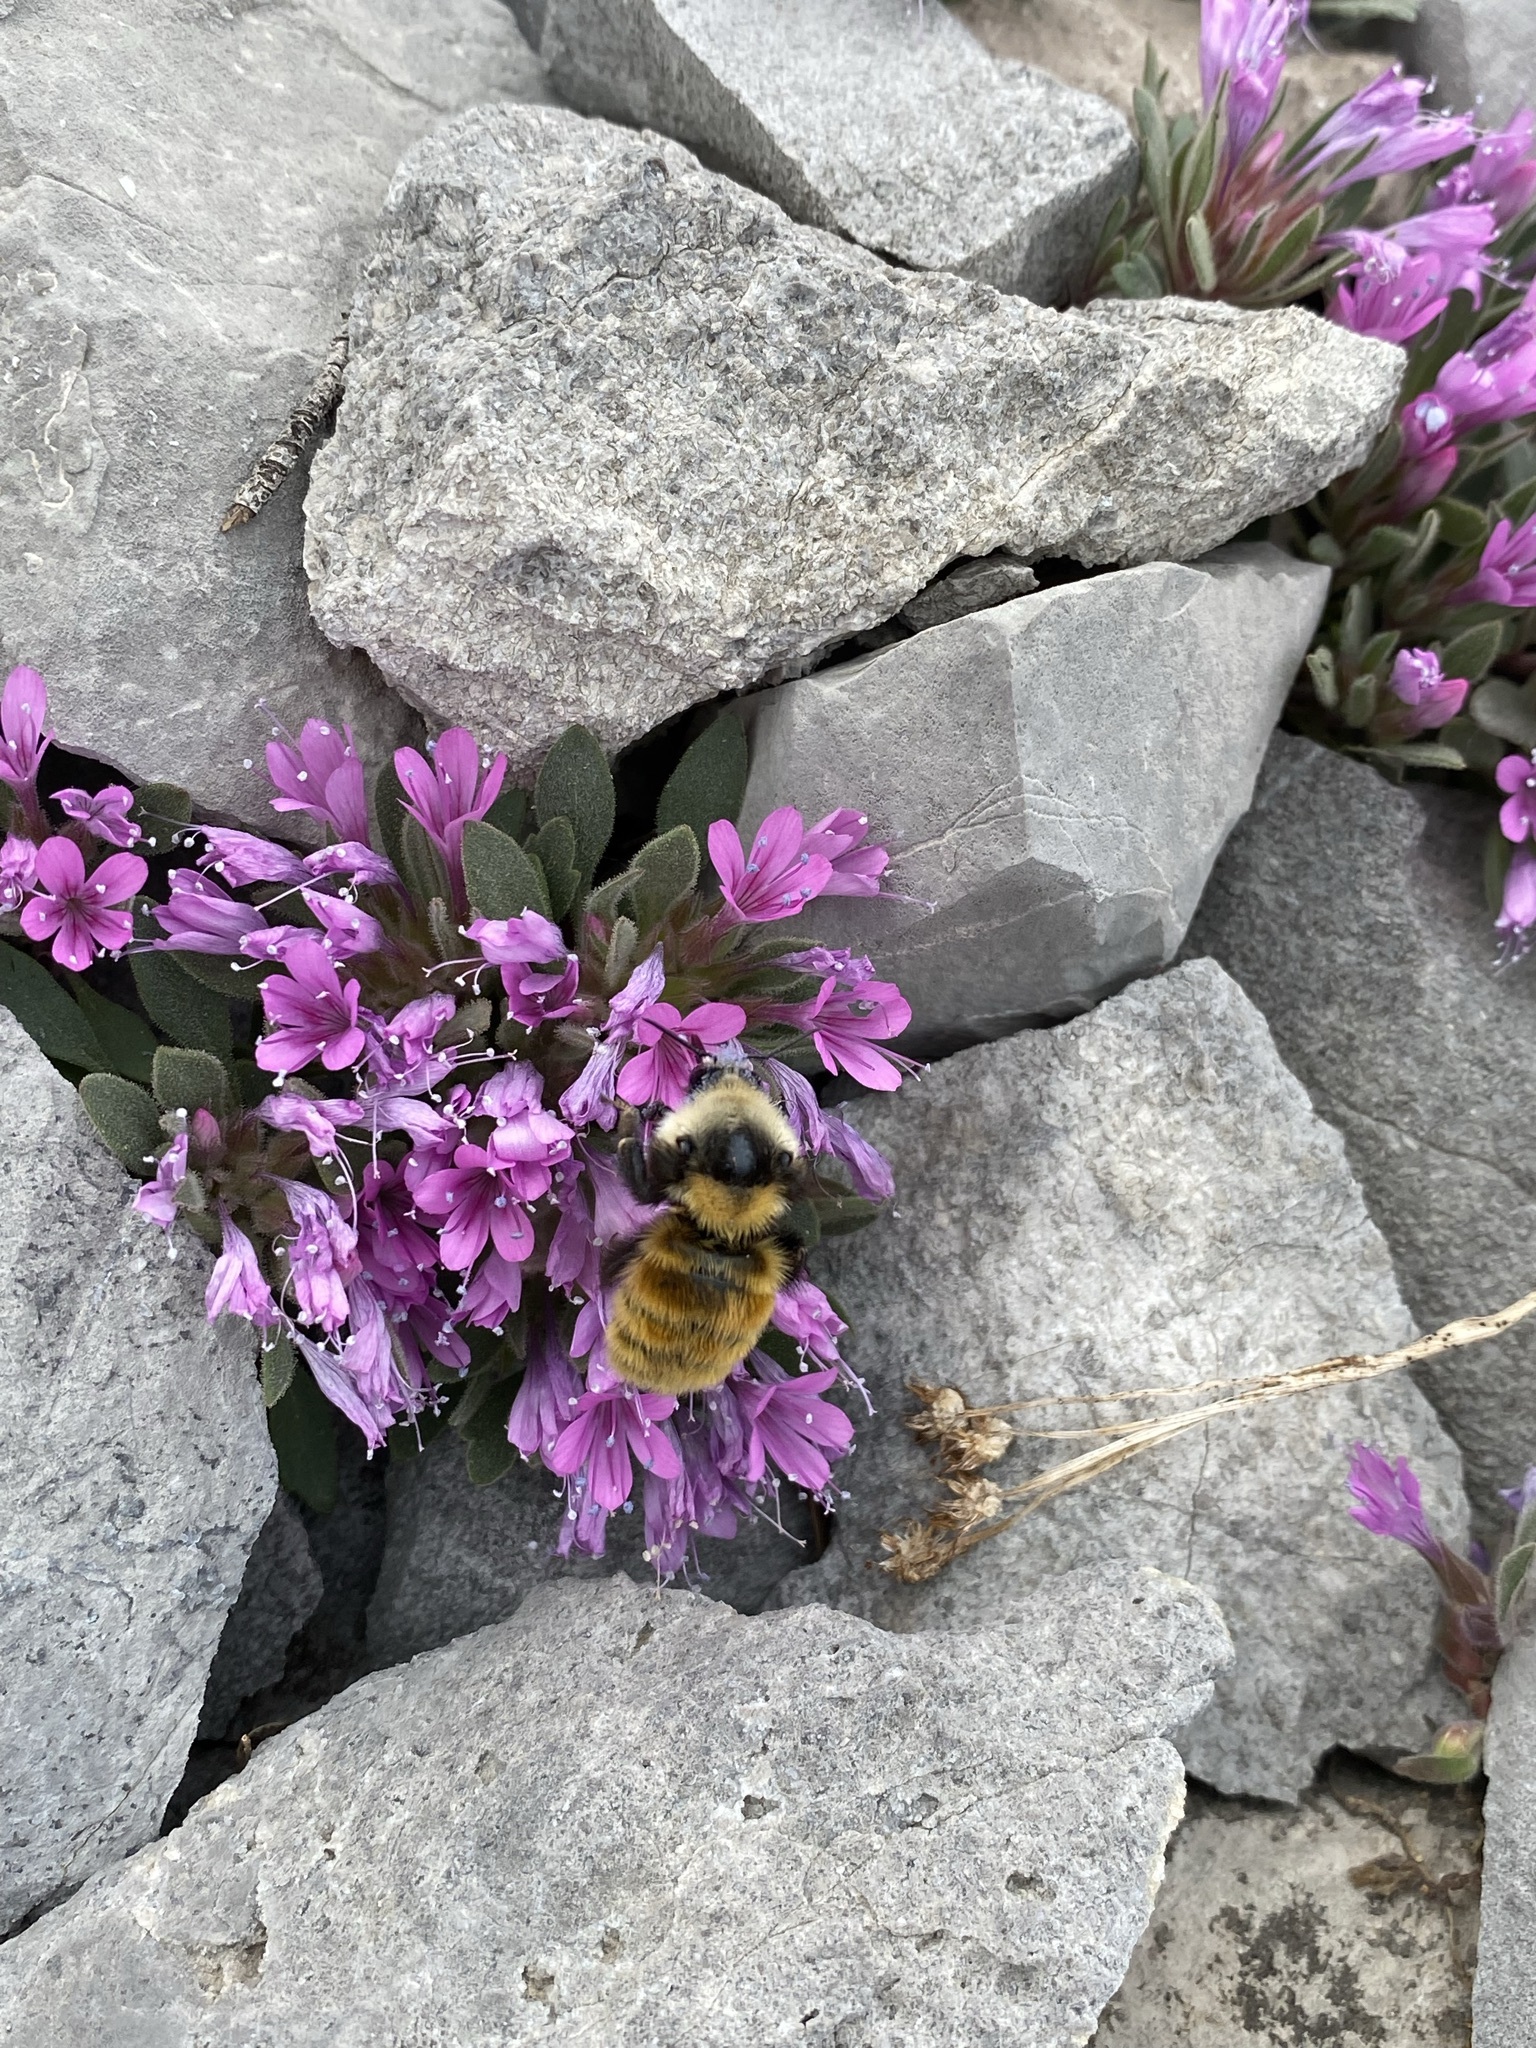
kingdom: Animalia
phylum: Arthropoda
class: Insecta
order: Hymenoptera
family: Apidae
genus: Bombus
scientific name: Bombus appositus
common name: White-shouldered bumble bee
